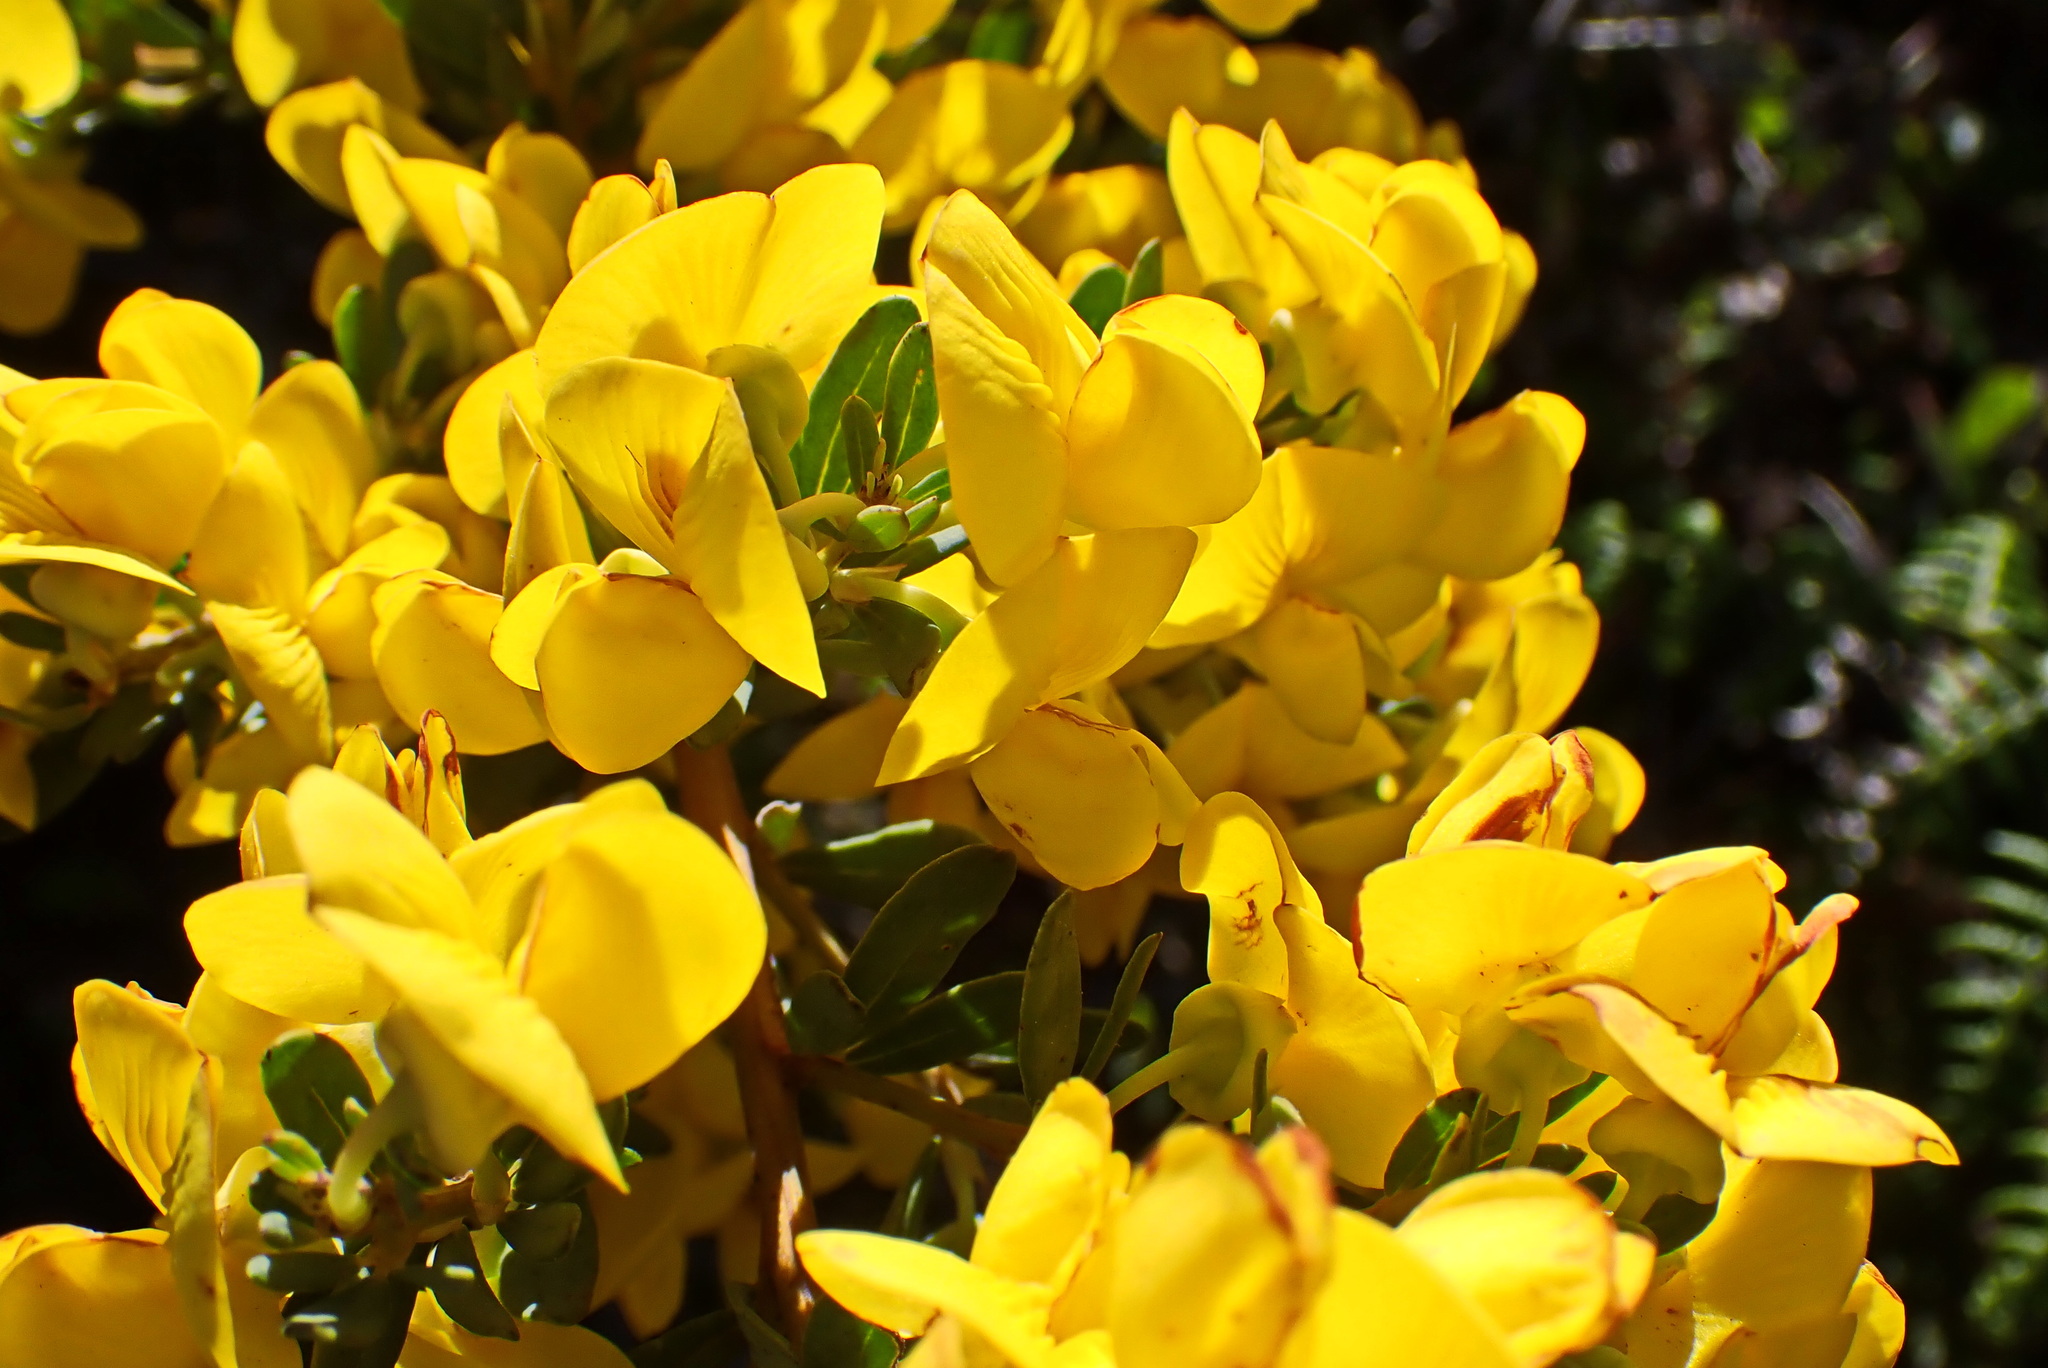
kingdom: Plantae
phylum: Tracheophyta
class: Magnoliopsida
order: Fabales
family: Fabaceae
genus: Cyclopia
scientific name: Cyclopia subternata
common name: Honeybush tea
